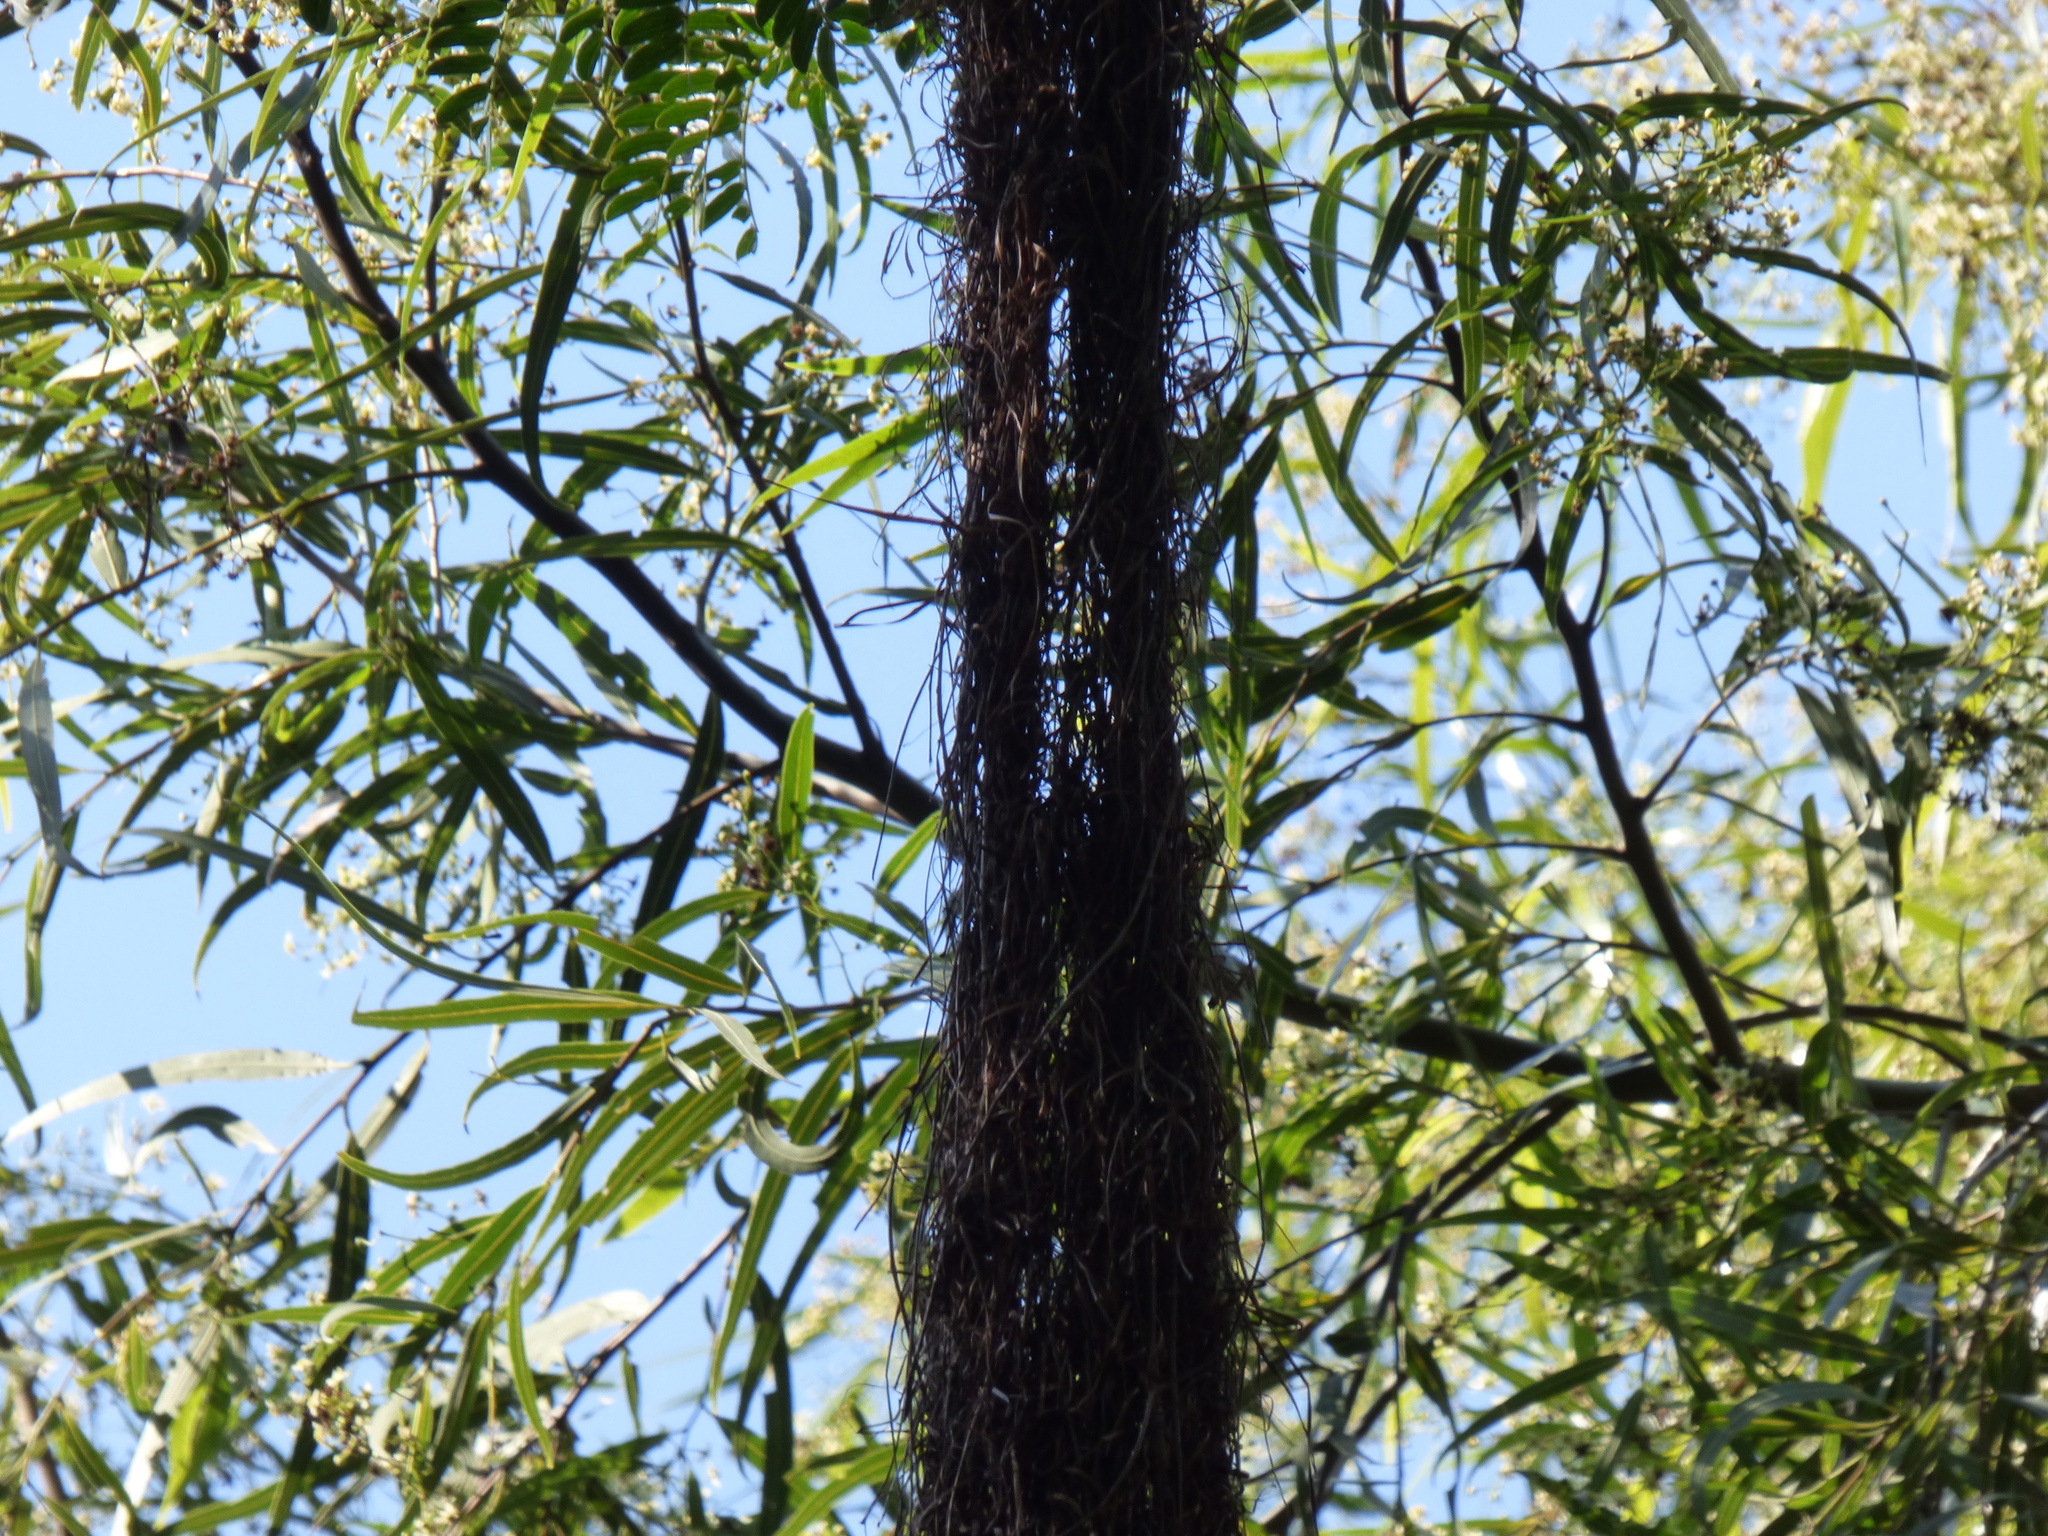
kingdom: Animalia
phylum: Chordata
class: Aves
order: Passeriformes
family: Icteridae
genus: Cacicus
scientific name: Cacicus chrysopterus
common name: Golden-winged cacique
